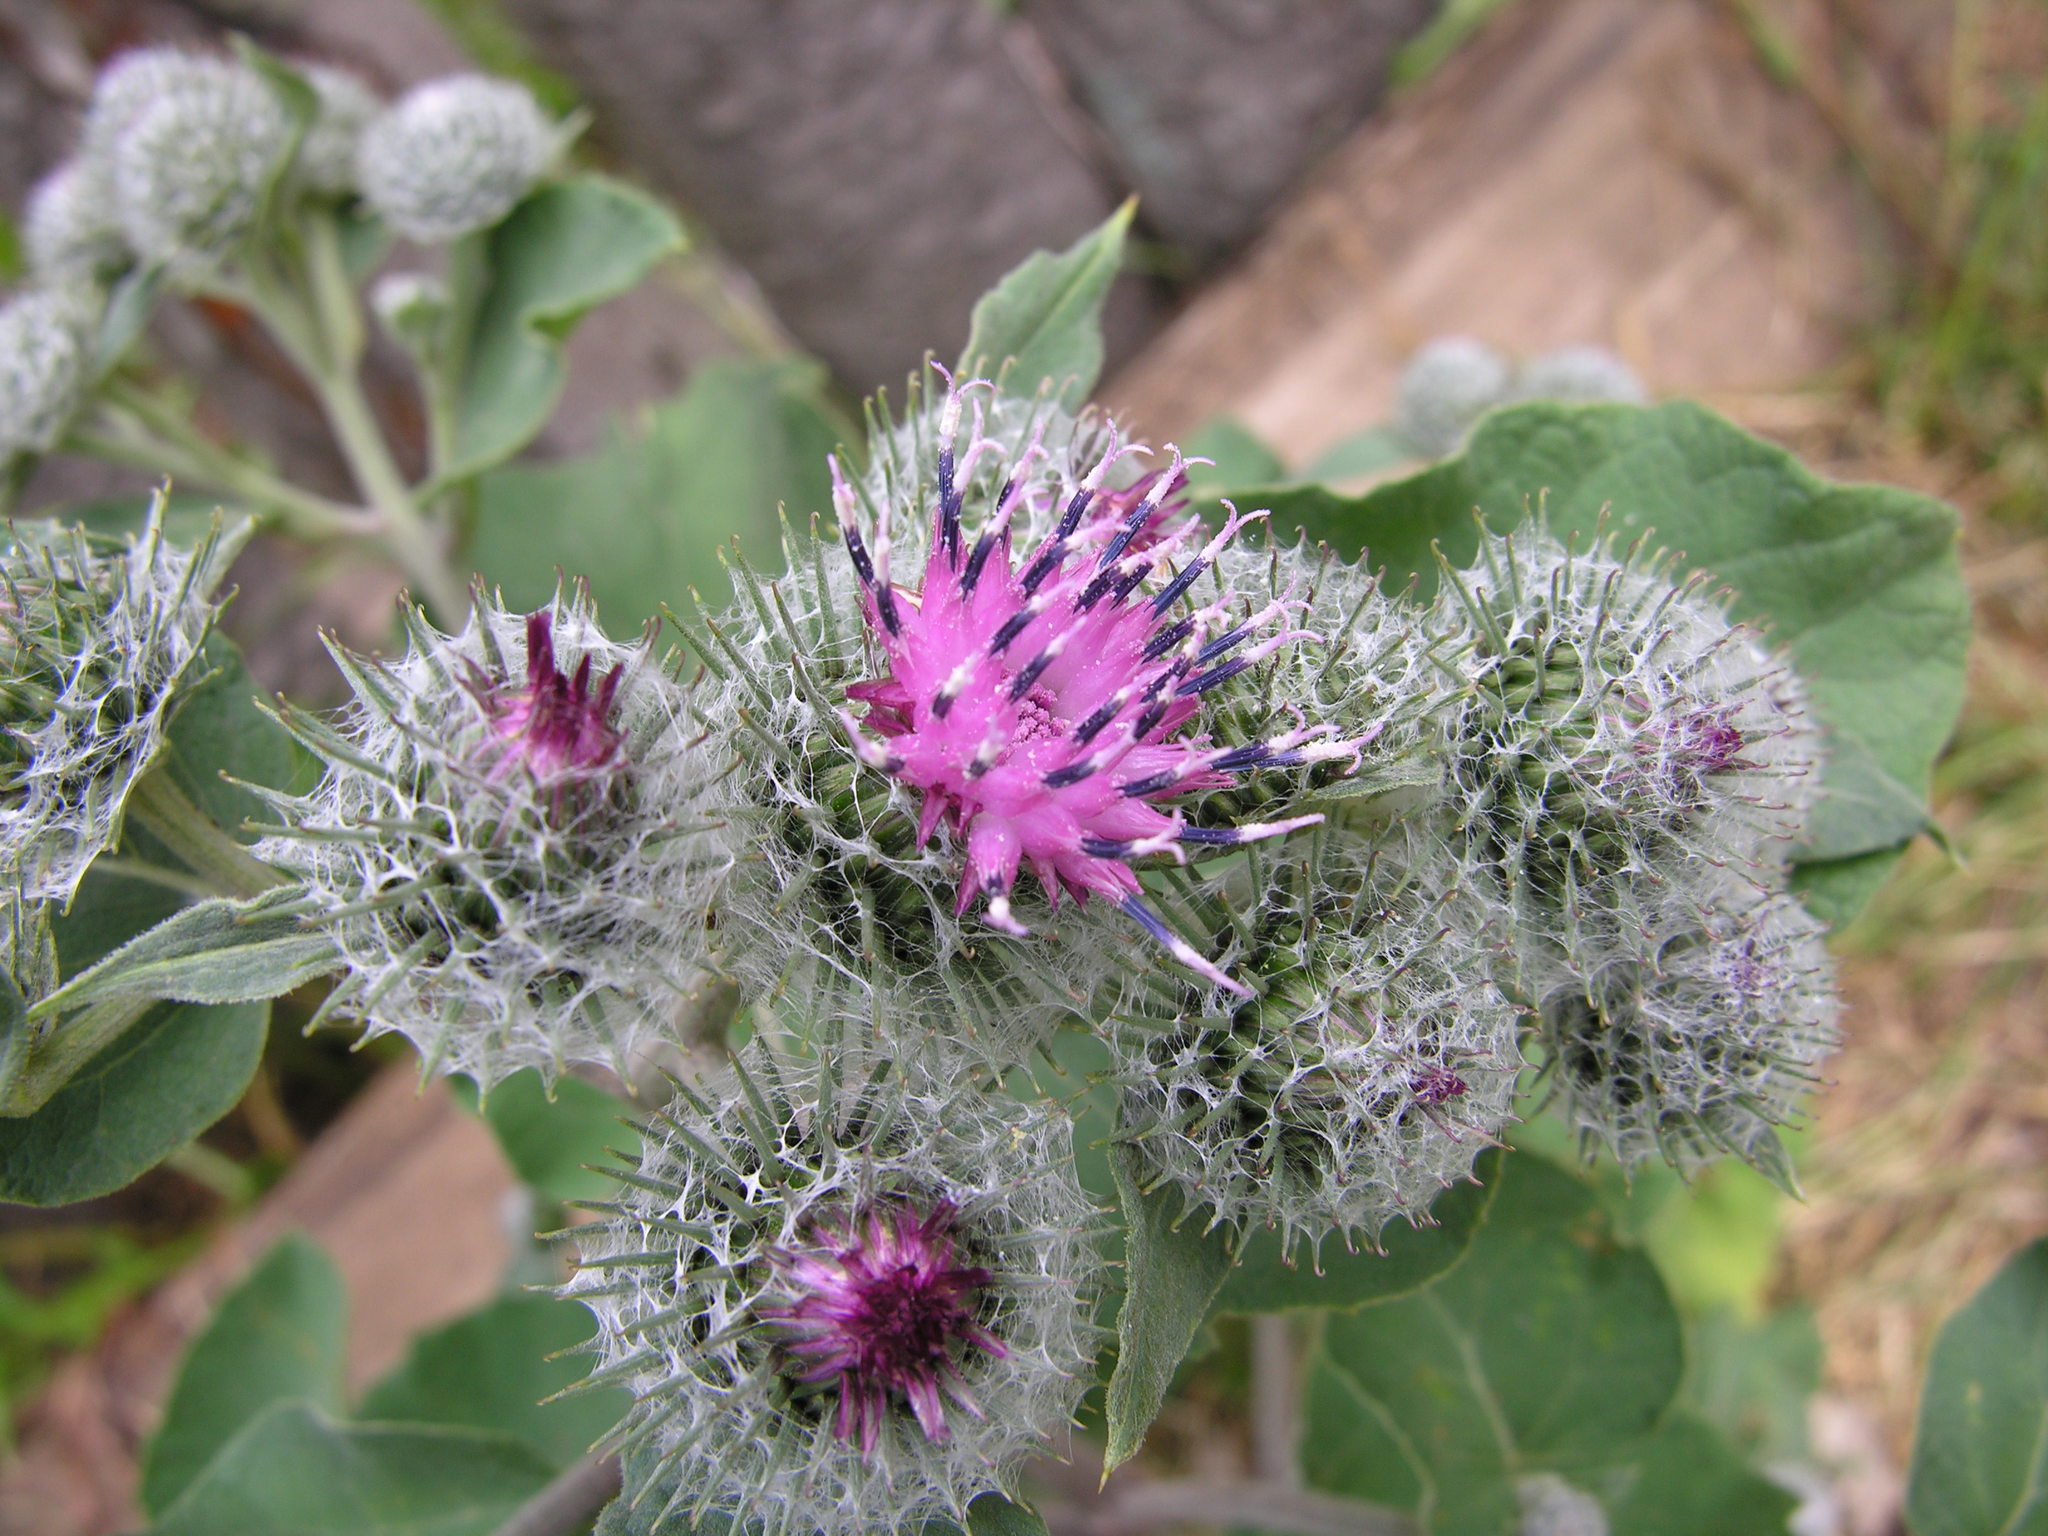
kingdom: Plantae
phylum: Tracheophyta
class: Magnoliopsida
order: Asterales
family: Asteraceae
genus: Arctium
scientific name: Arctium tomentosum
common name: Woolly burdock
